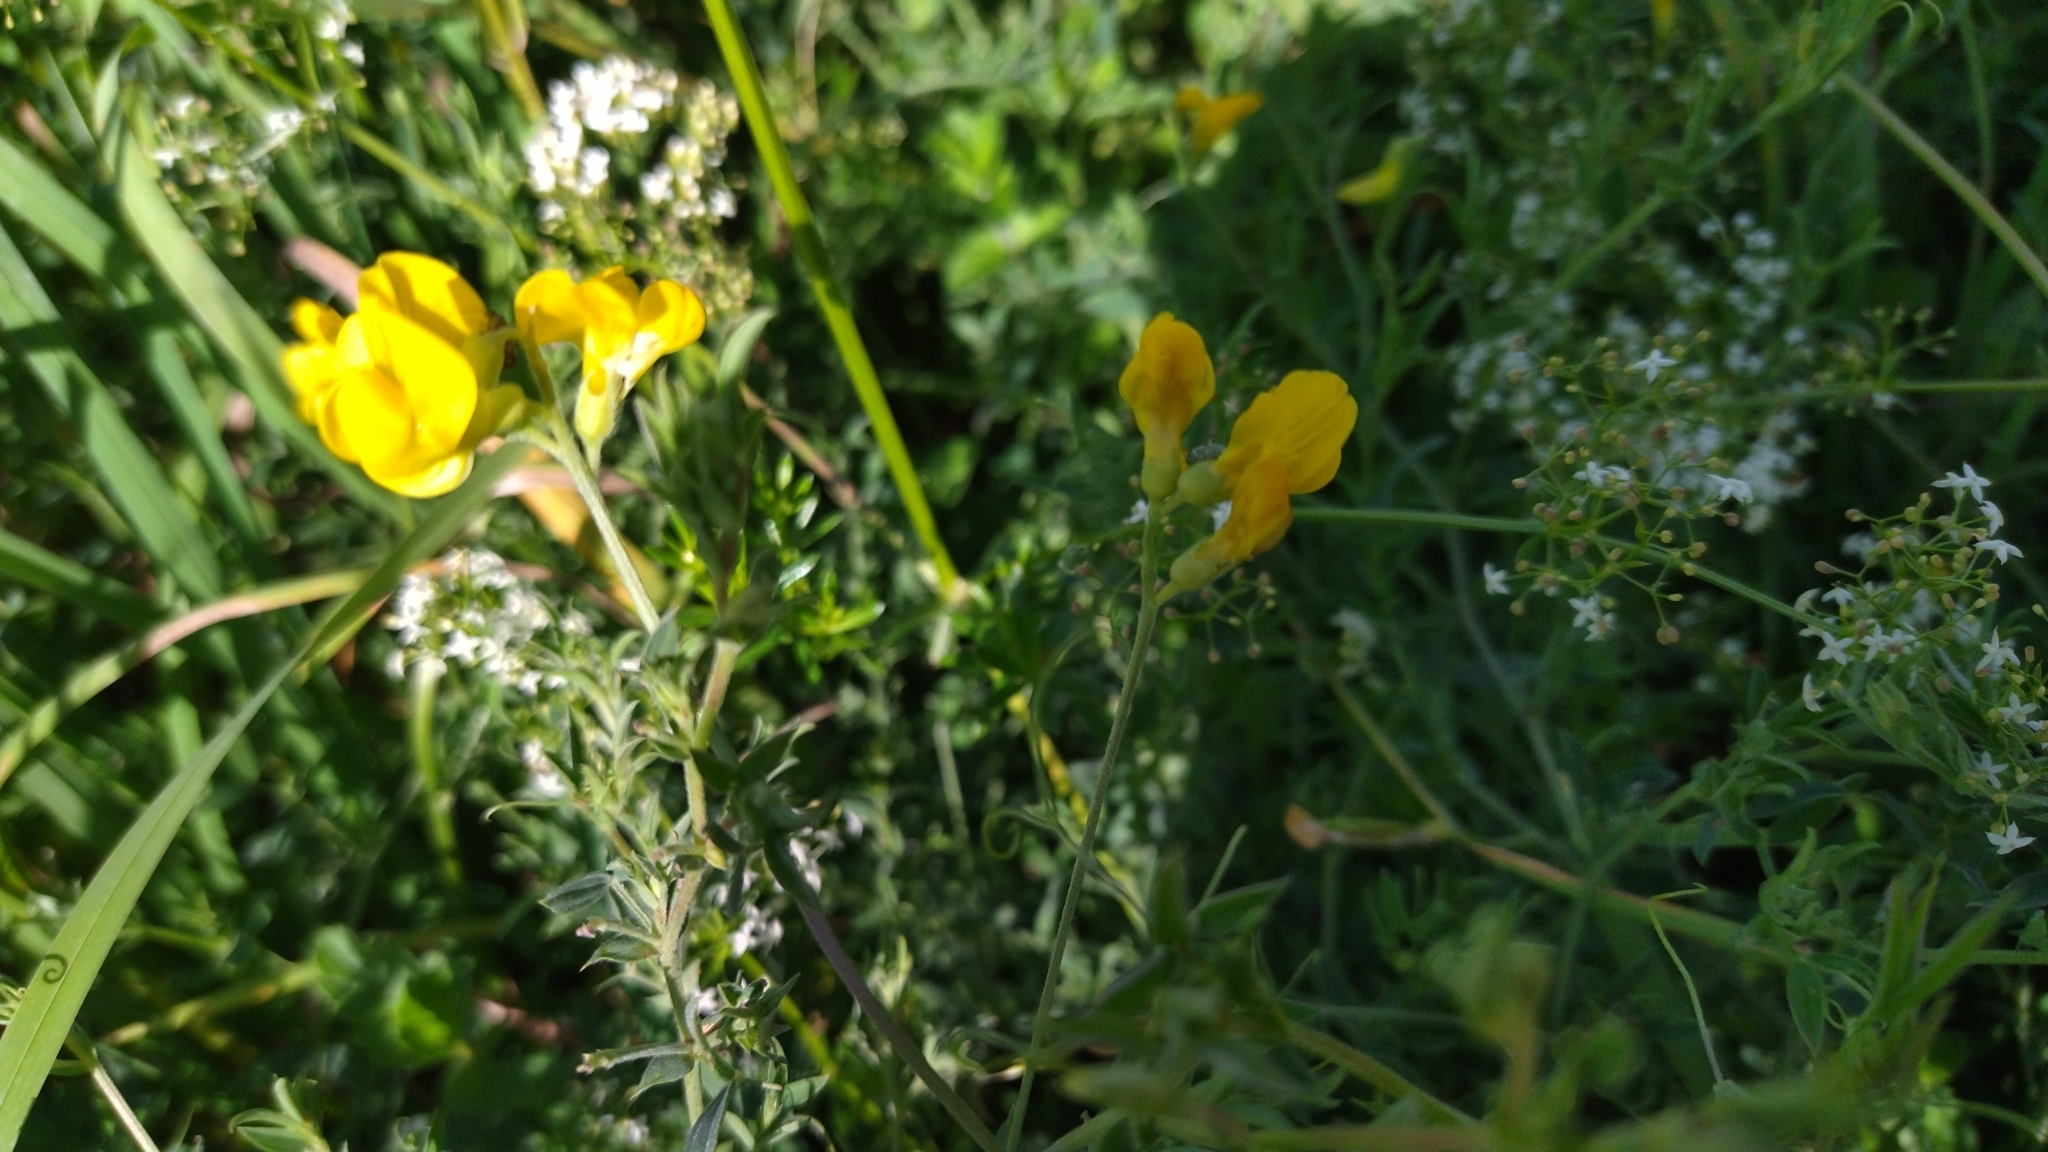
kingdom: Plantae
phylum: Tracheophyta
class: Magnoliopsida
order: Fabales
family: Fabaceae
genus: Lathyrus
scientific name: Lathyrus pratensis
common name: Meadow vetchling
